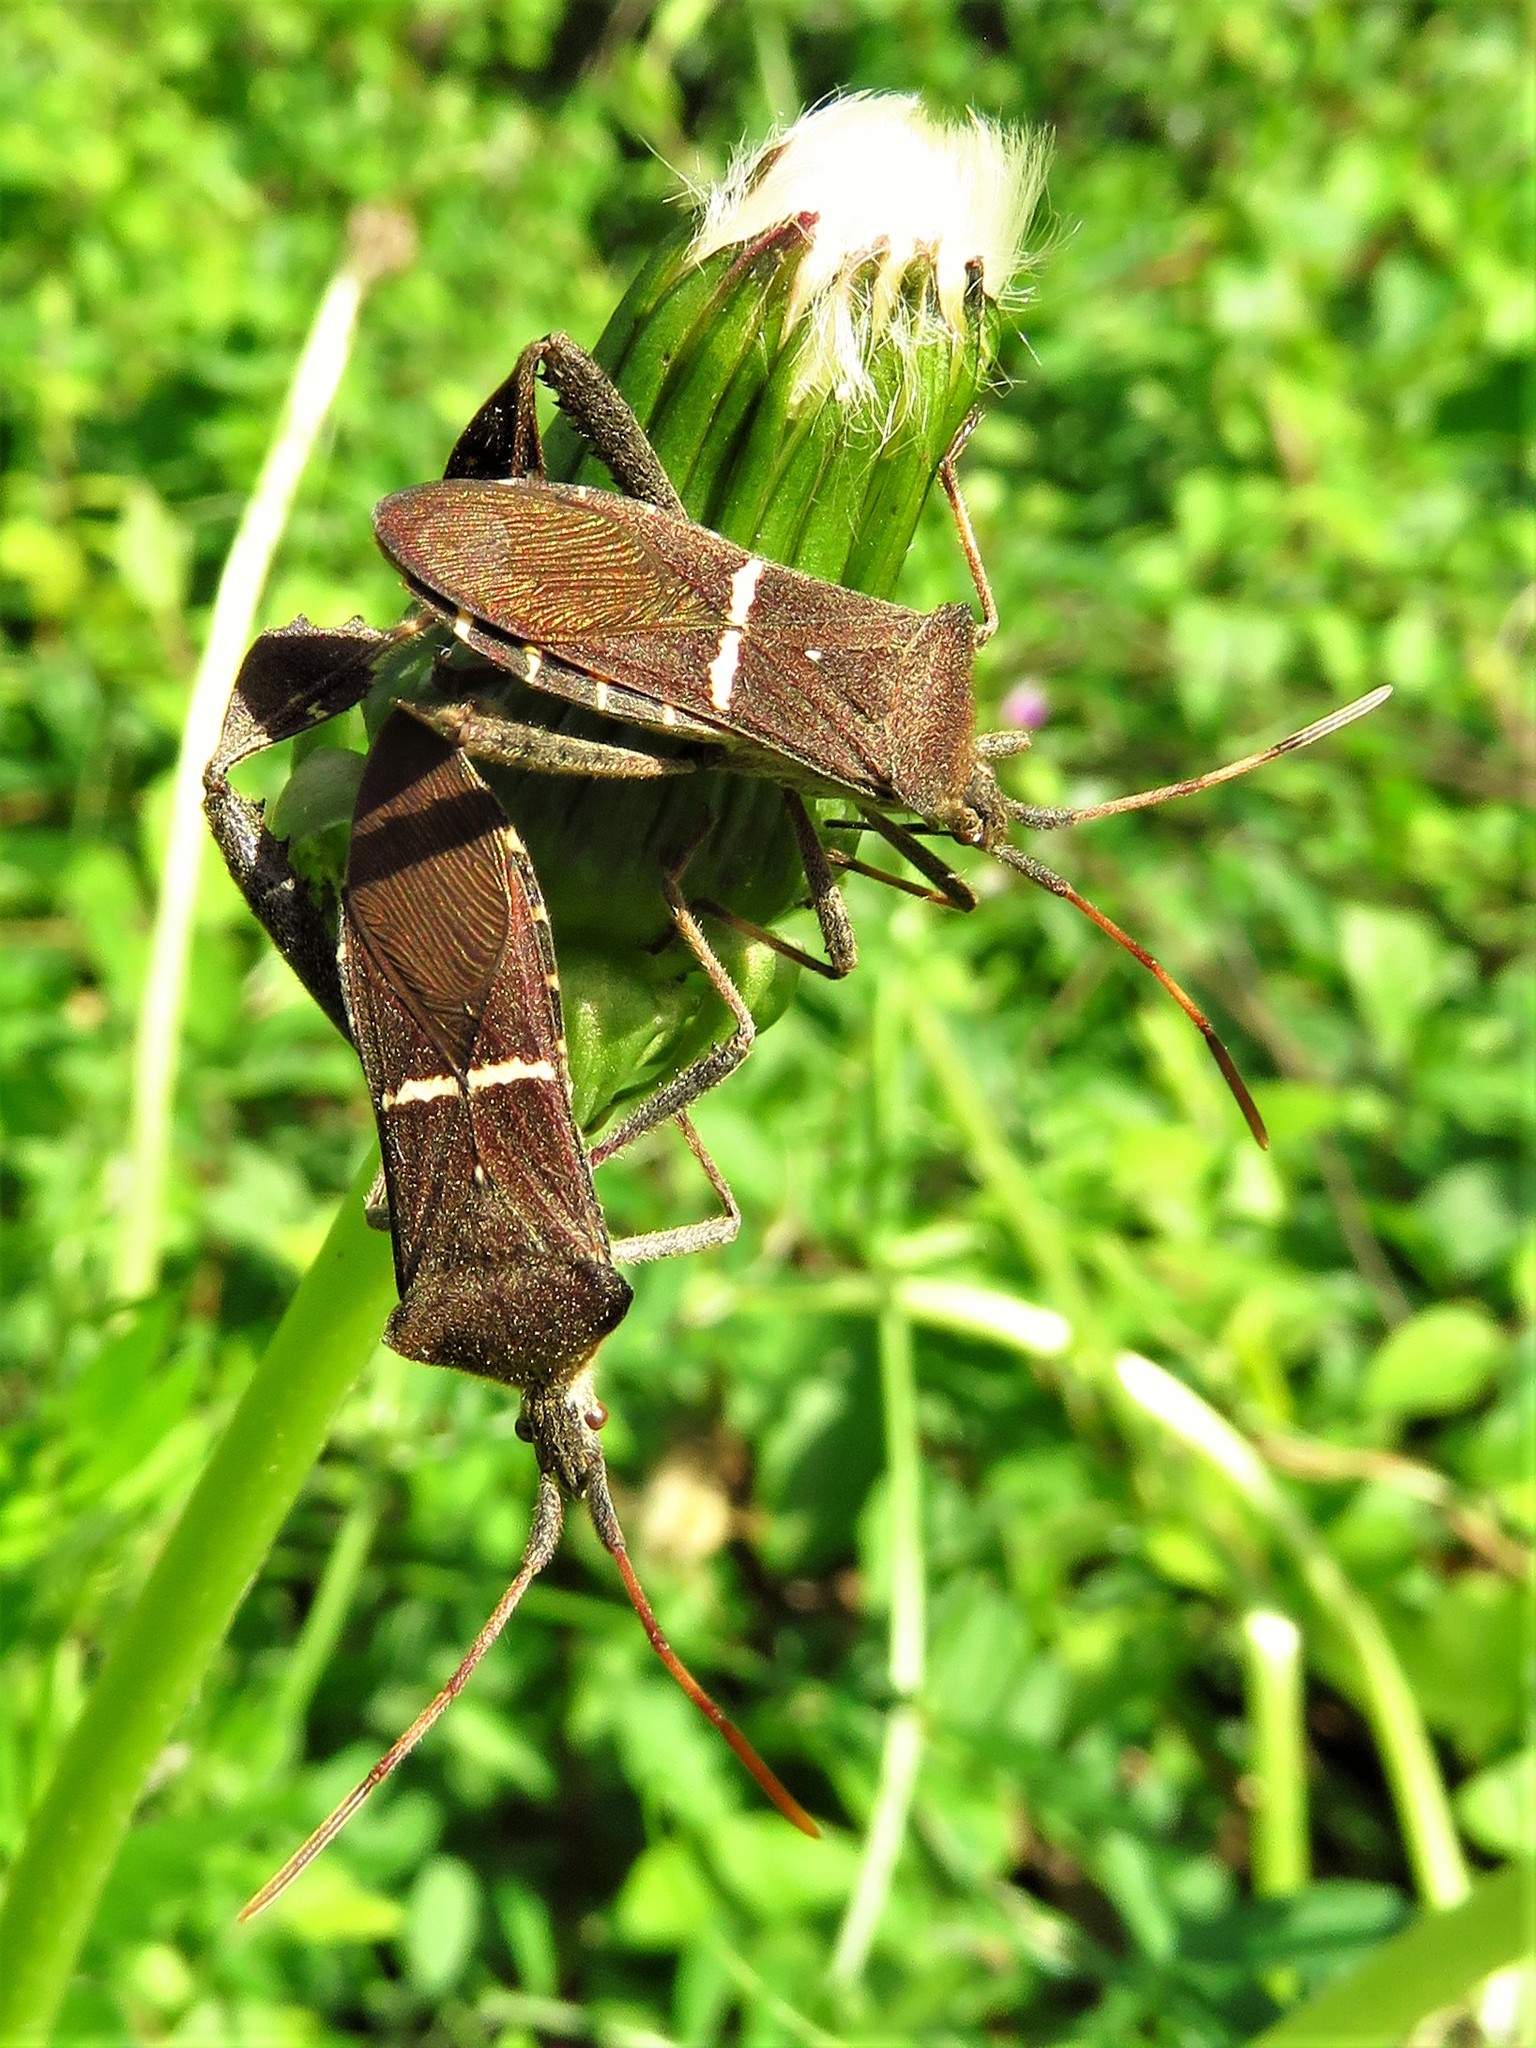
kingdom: Animalia
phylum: Arthropoda
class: Insecta
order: Hemiptera
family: Coreidae
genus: Leptoglossus
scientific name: Leptoglossus phyllopus
